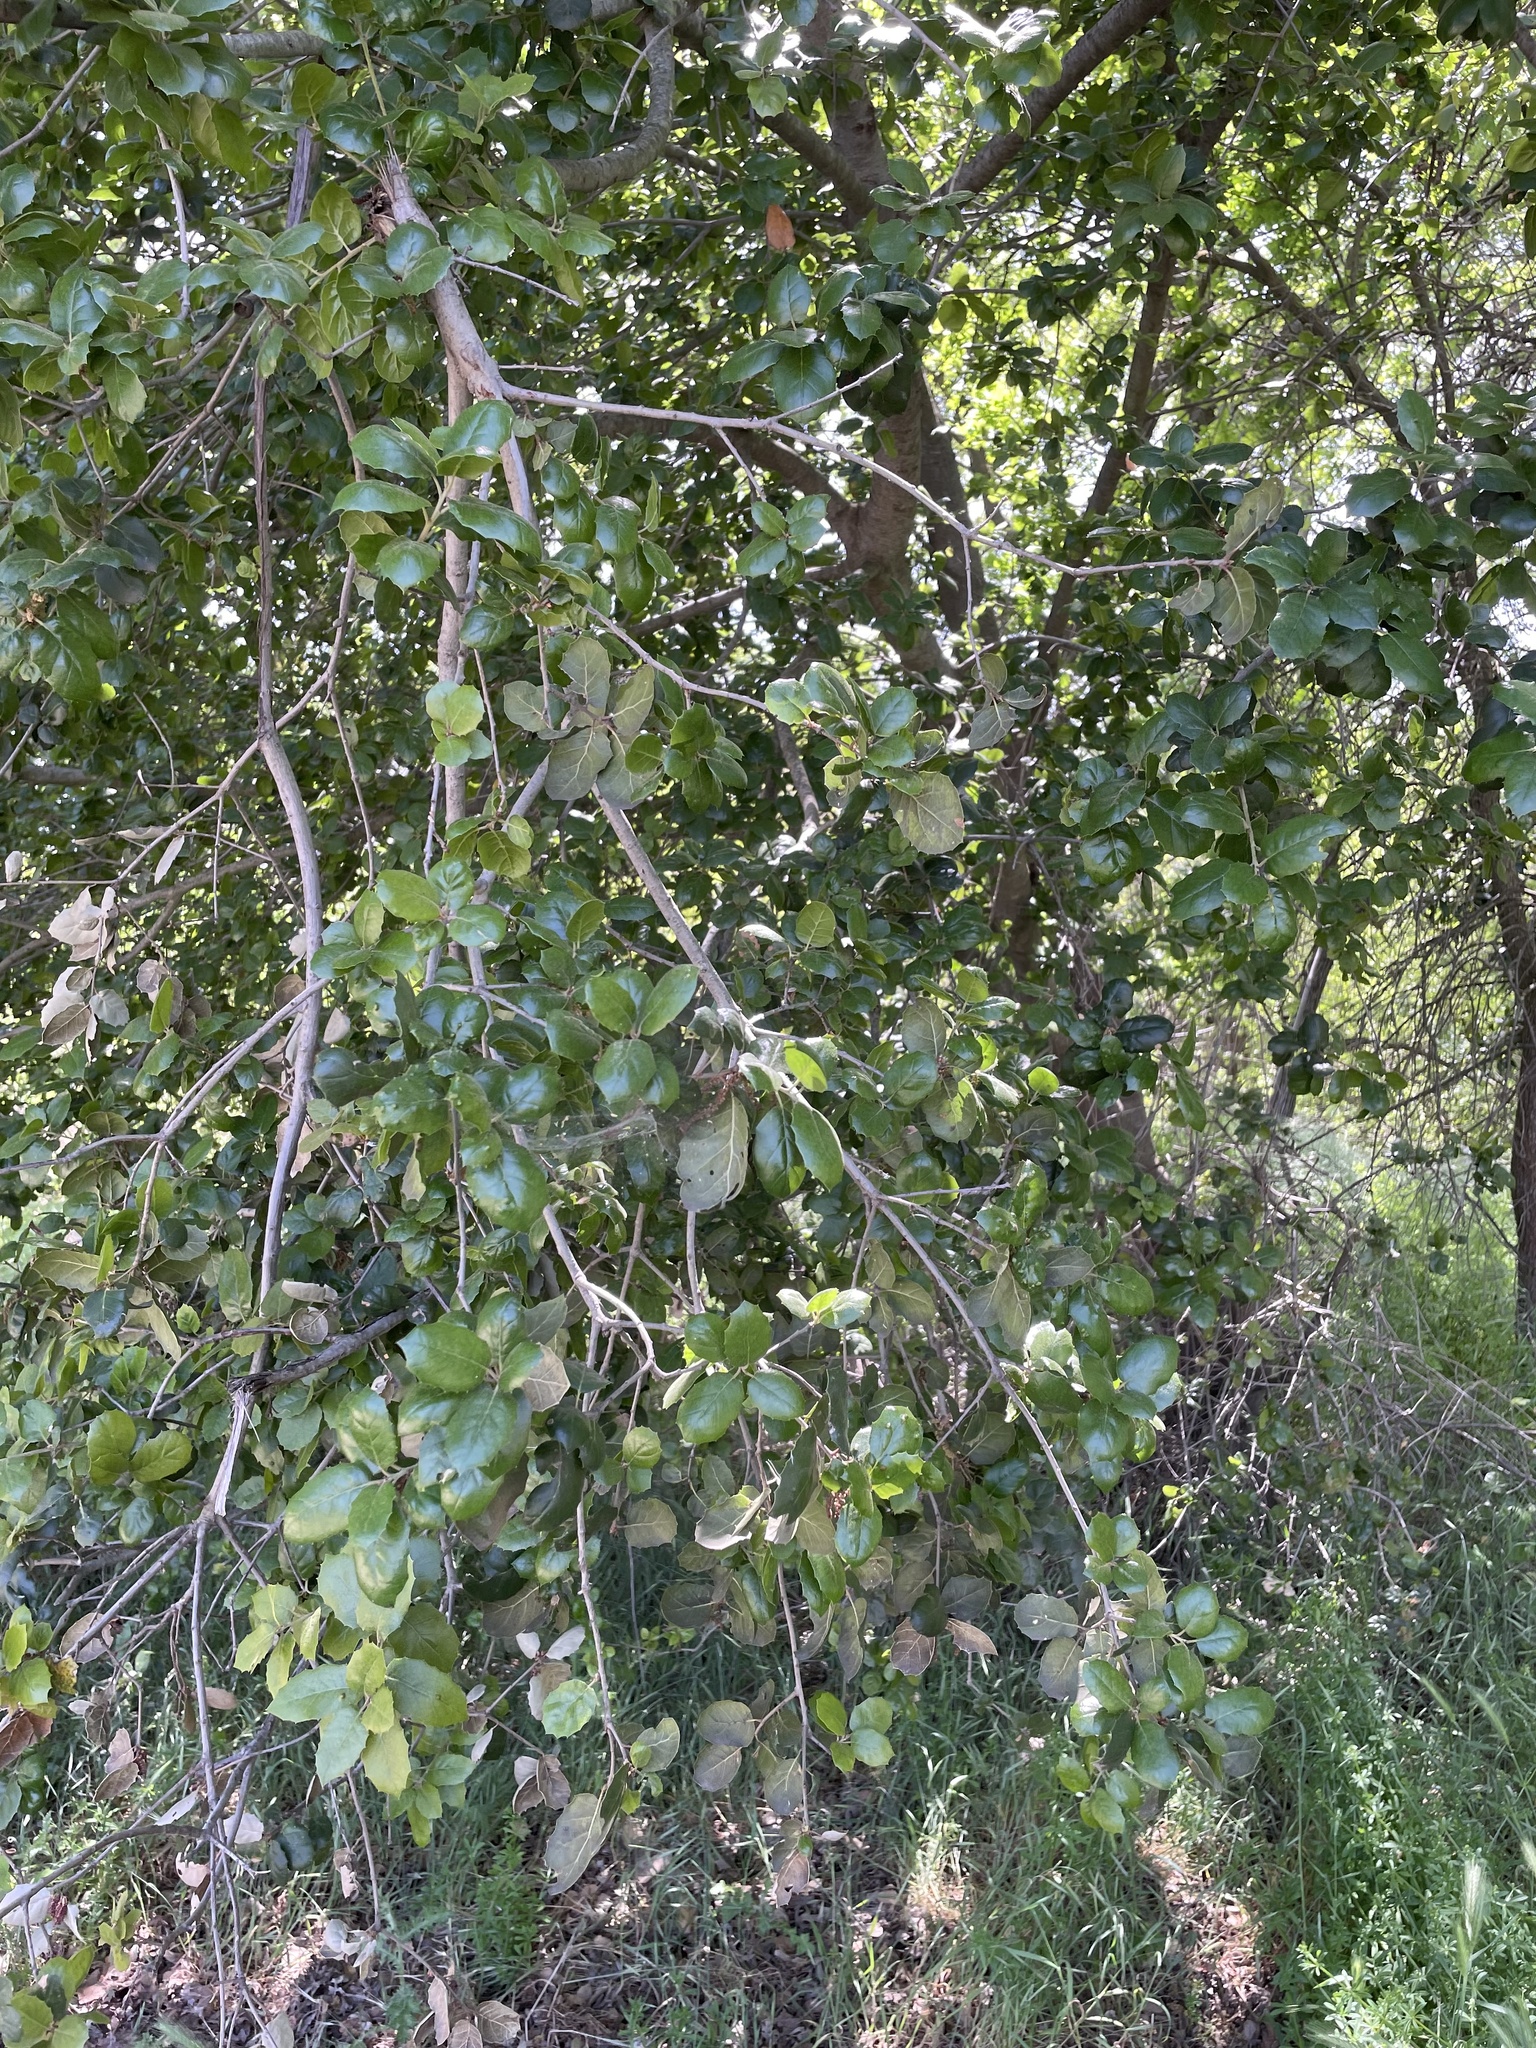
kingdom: Plantae
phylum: Tracheophyta
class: Magnoliopsida
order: Fagales
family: Fagaceae
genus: Quercus
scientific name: Quercus agrifolia
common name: California live oak
